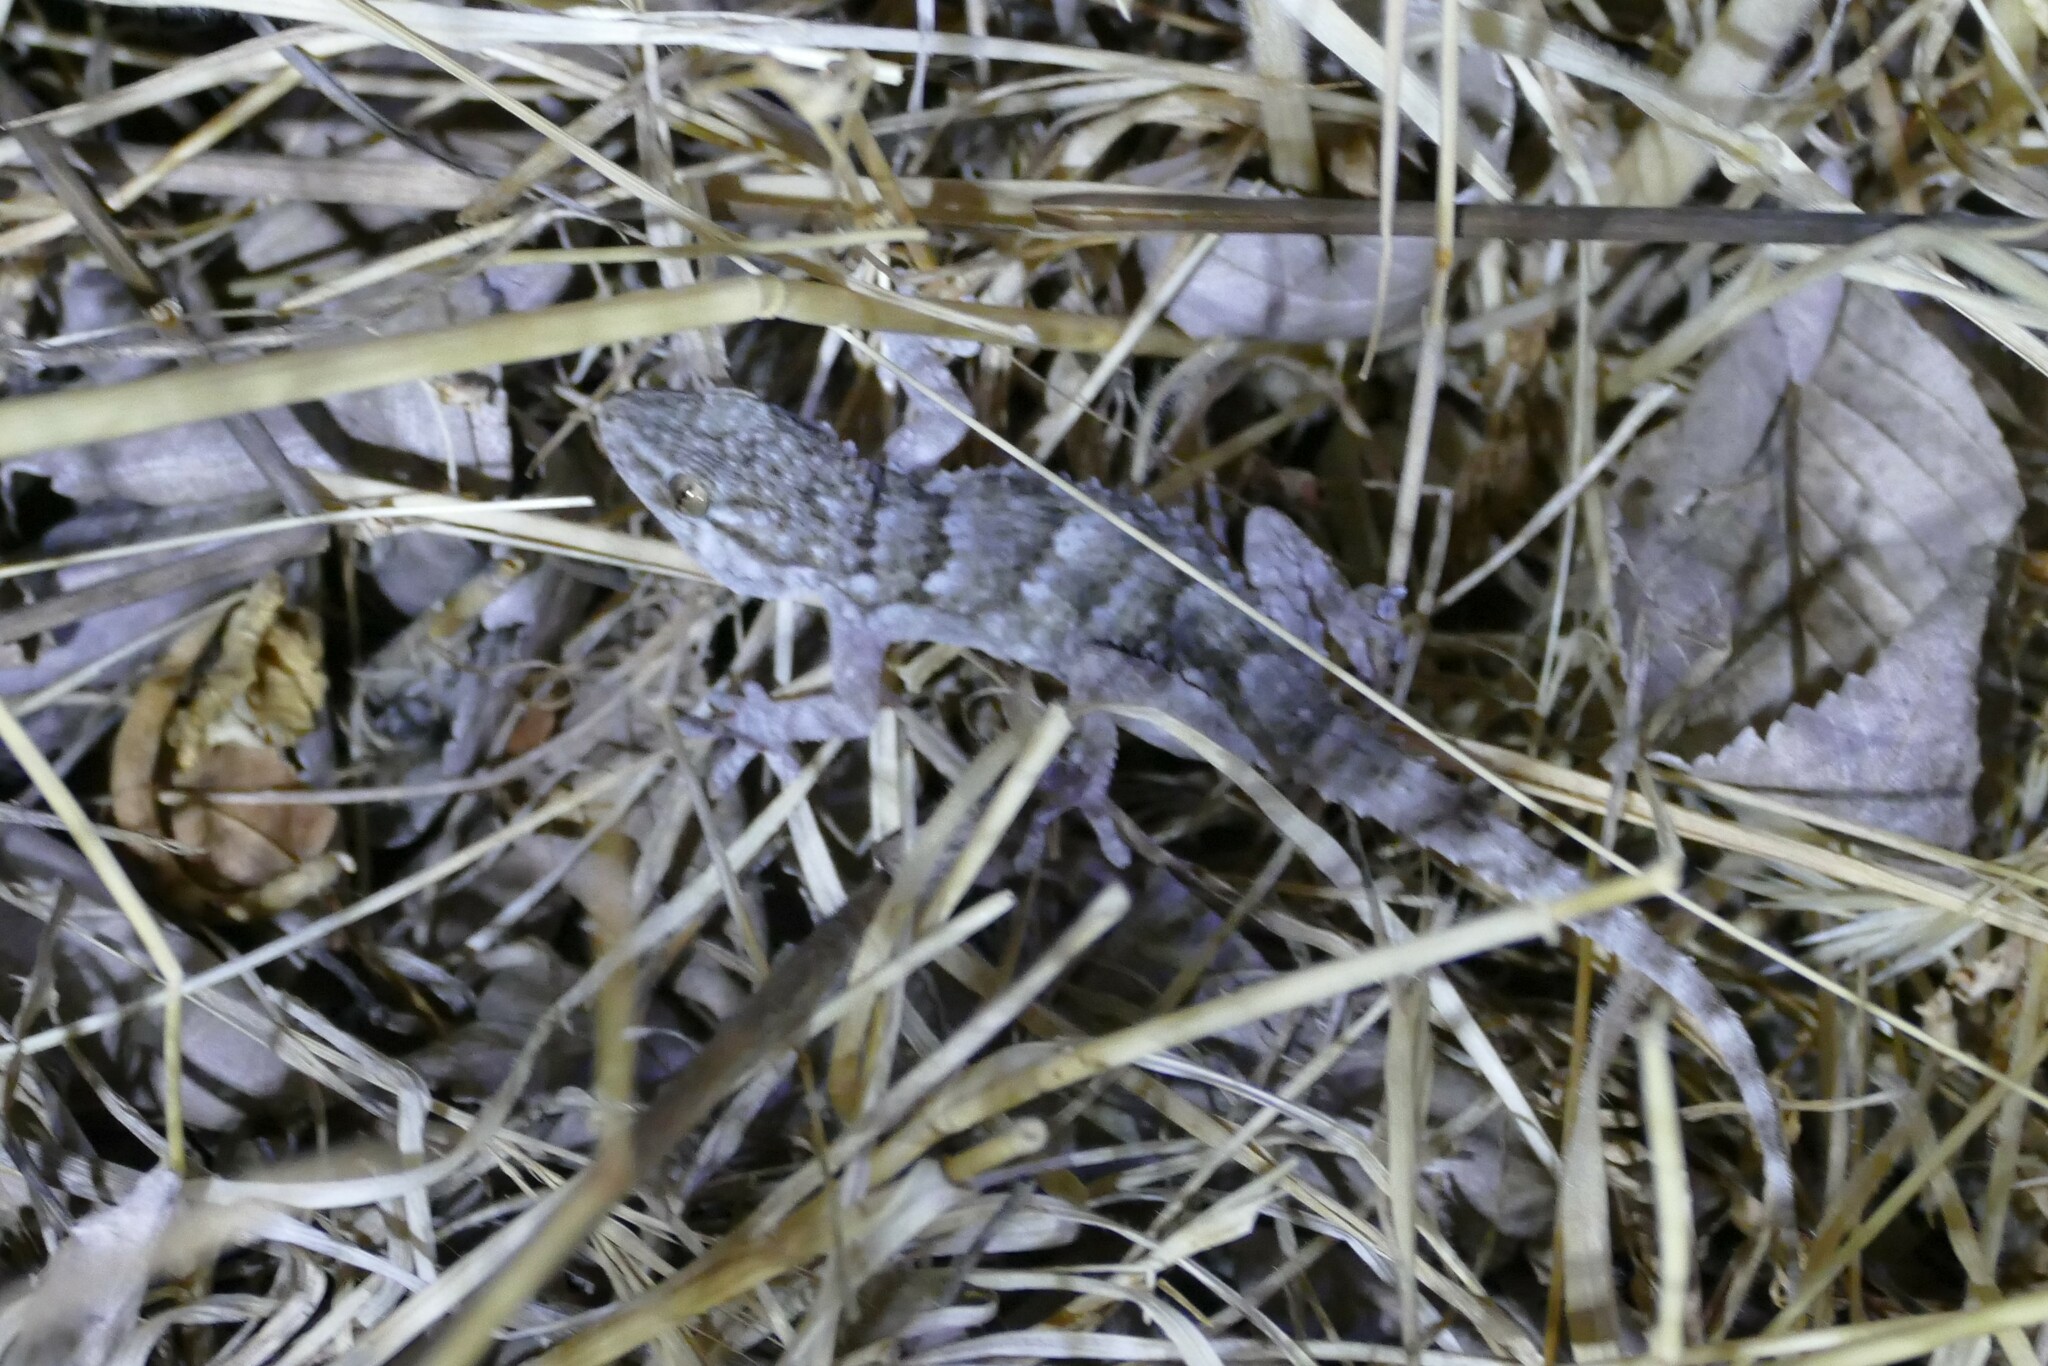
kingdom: Animalia
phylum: Chordata
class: Squamata
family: Phyllodactylidae
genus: Tarentola
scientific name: Tarentola mauritanica
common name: Moorish gecko
